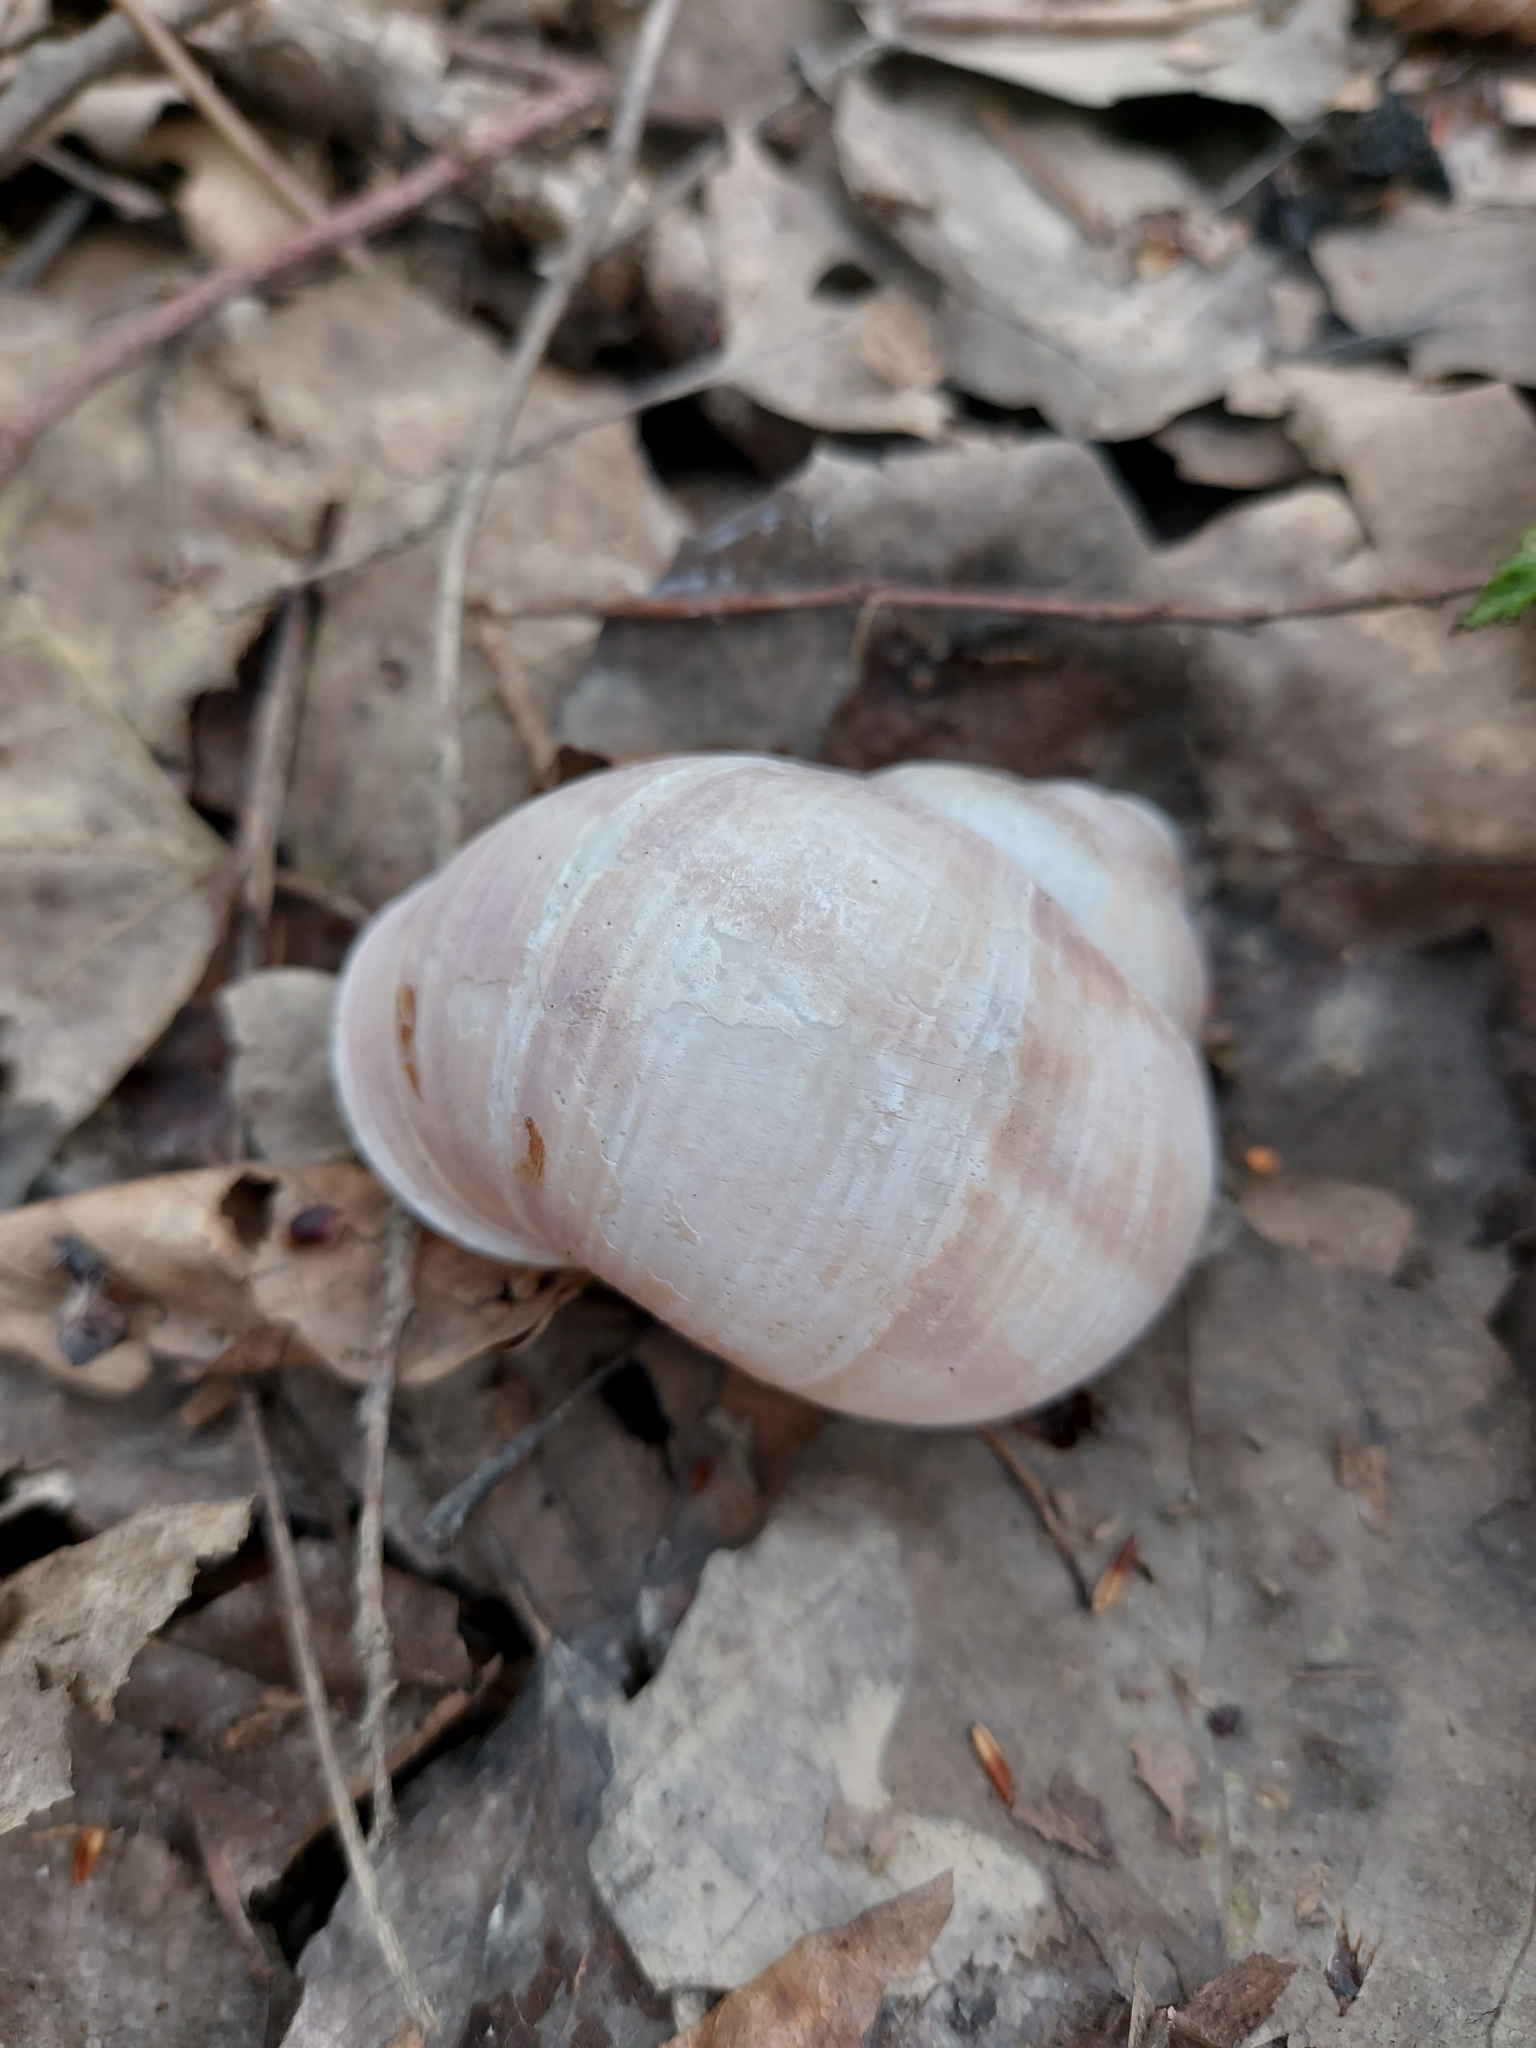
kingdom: Animalia
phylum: Mollusca
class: Gastropoda
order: Stylommatophora
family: Helicidae
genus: Helix
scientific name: Helix pomatia
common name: Roman snail
